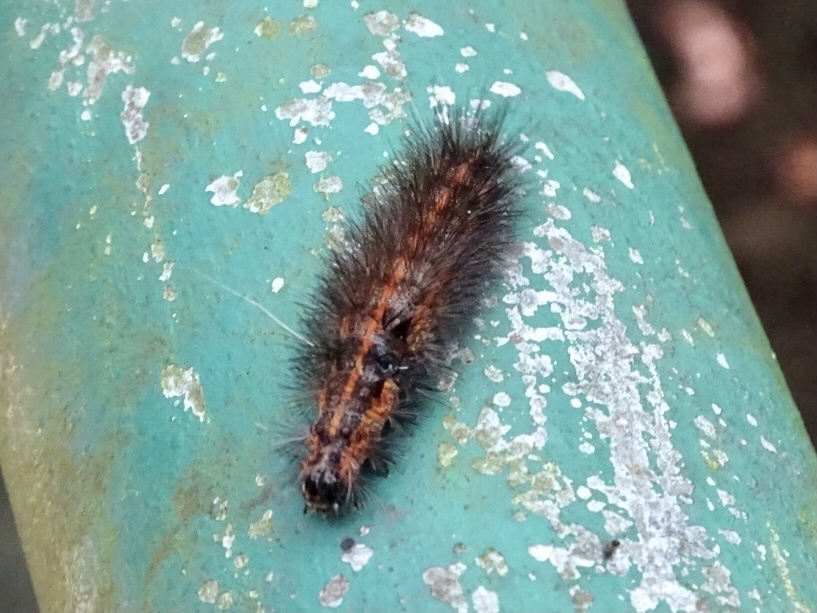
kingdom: Animalia
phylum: Arthropoda
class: Insecta
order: Lepidoptera
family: Erebidae
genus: Spilarctia
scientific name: Spilarctia subcarnea
